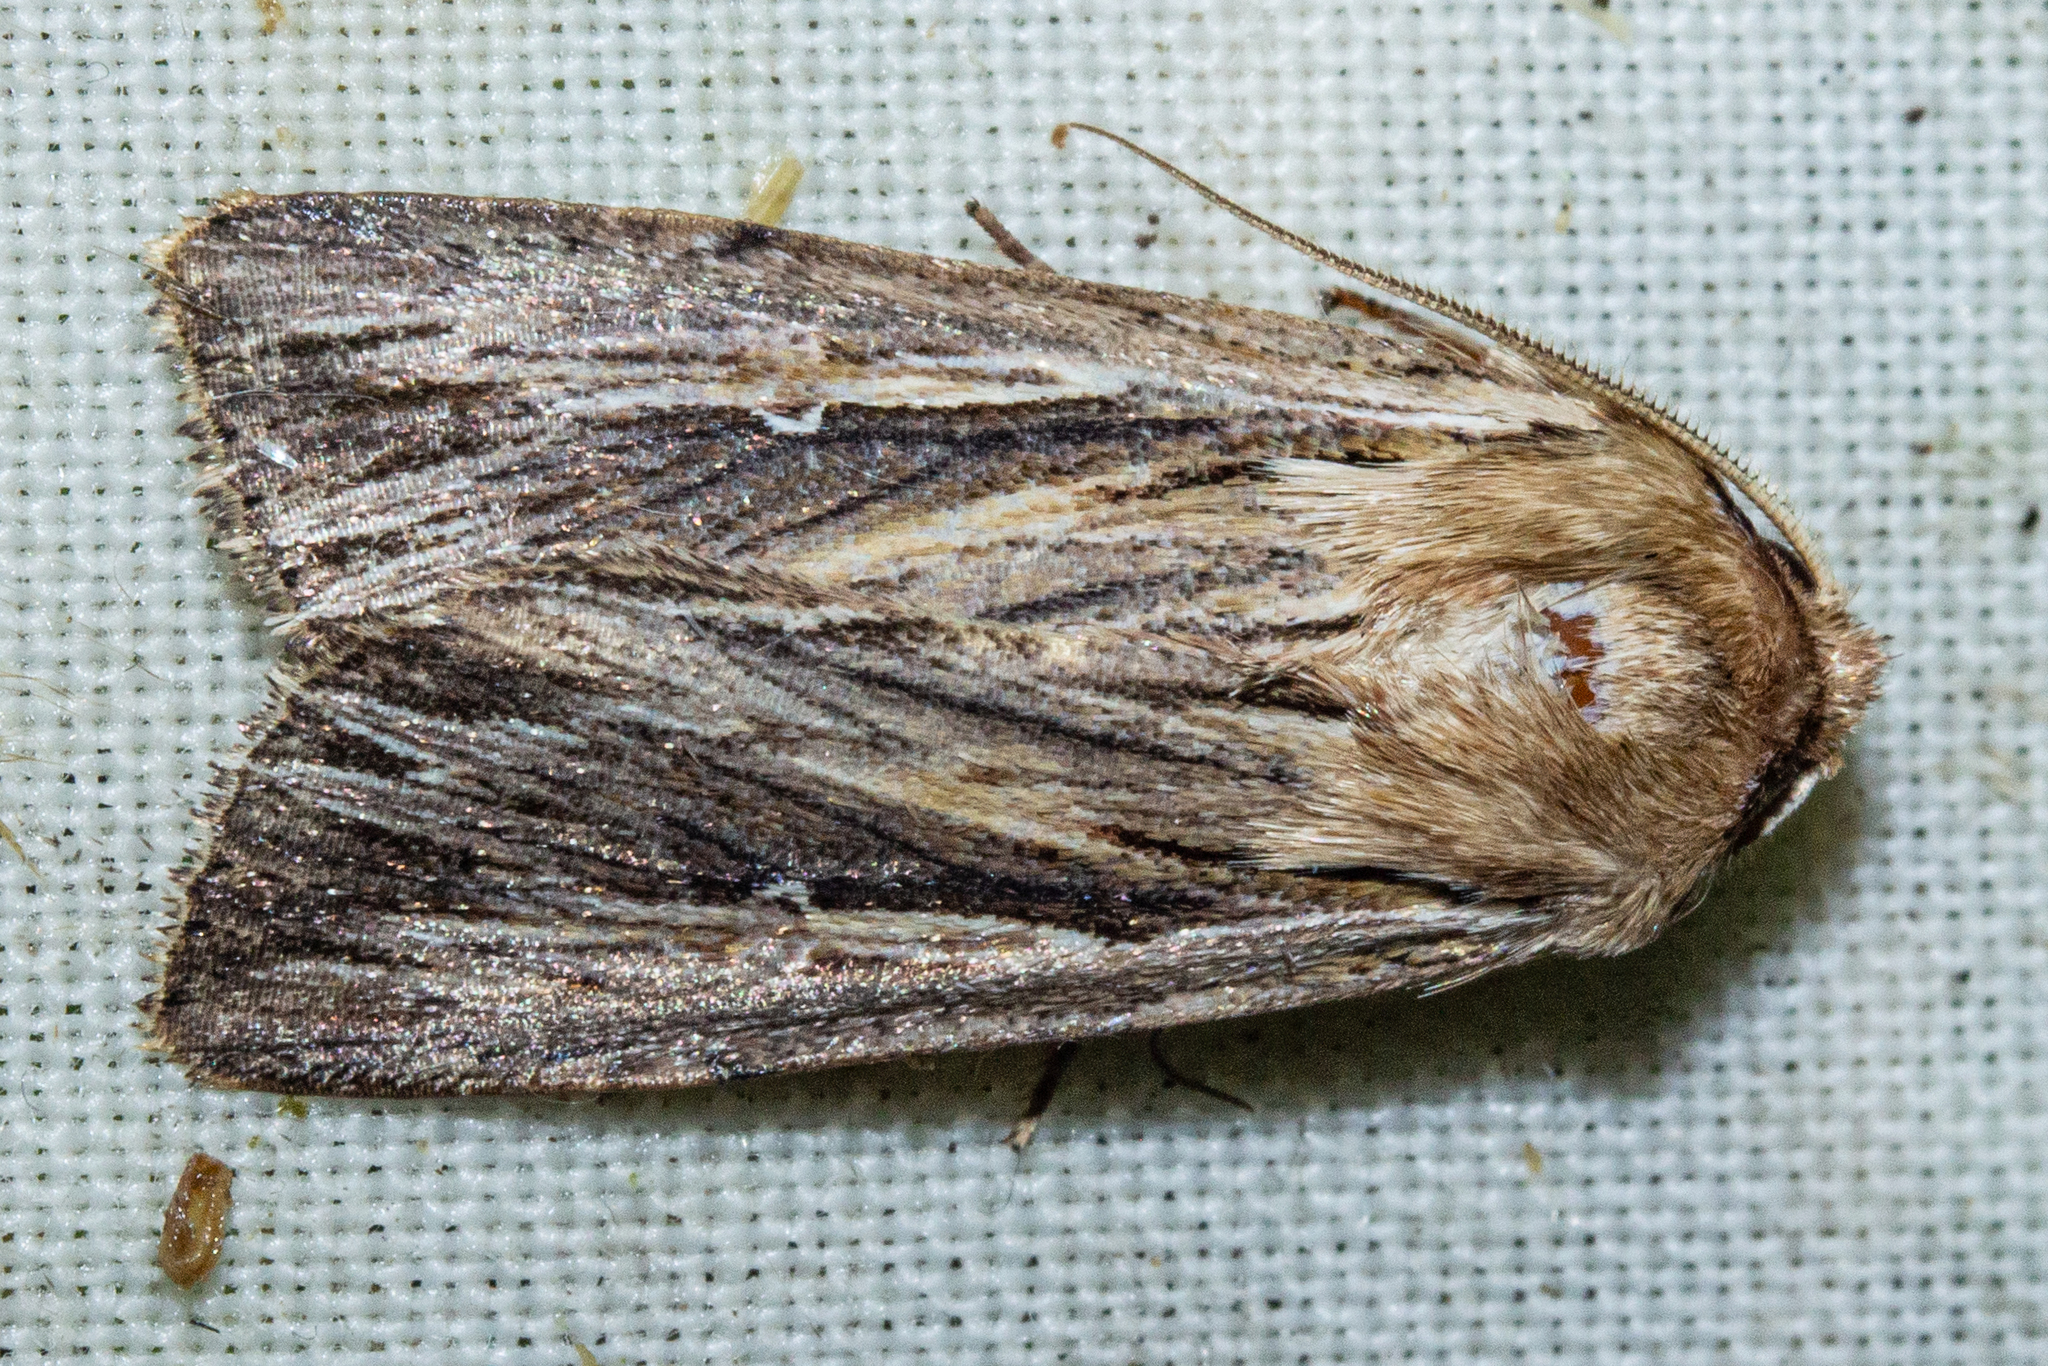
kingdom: Animalia
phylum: Arthropoda
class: Insecta
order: Lepidoptera
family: Noctuidae
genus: Persectania
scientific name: Persectania aversa
